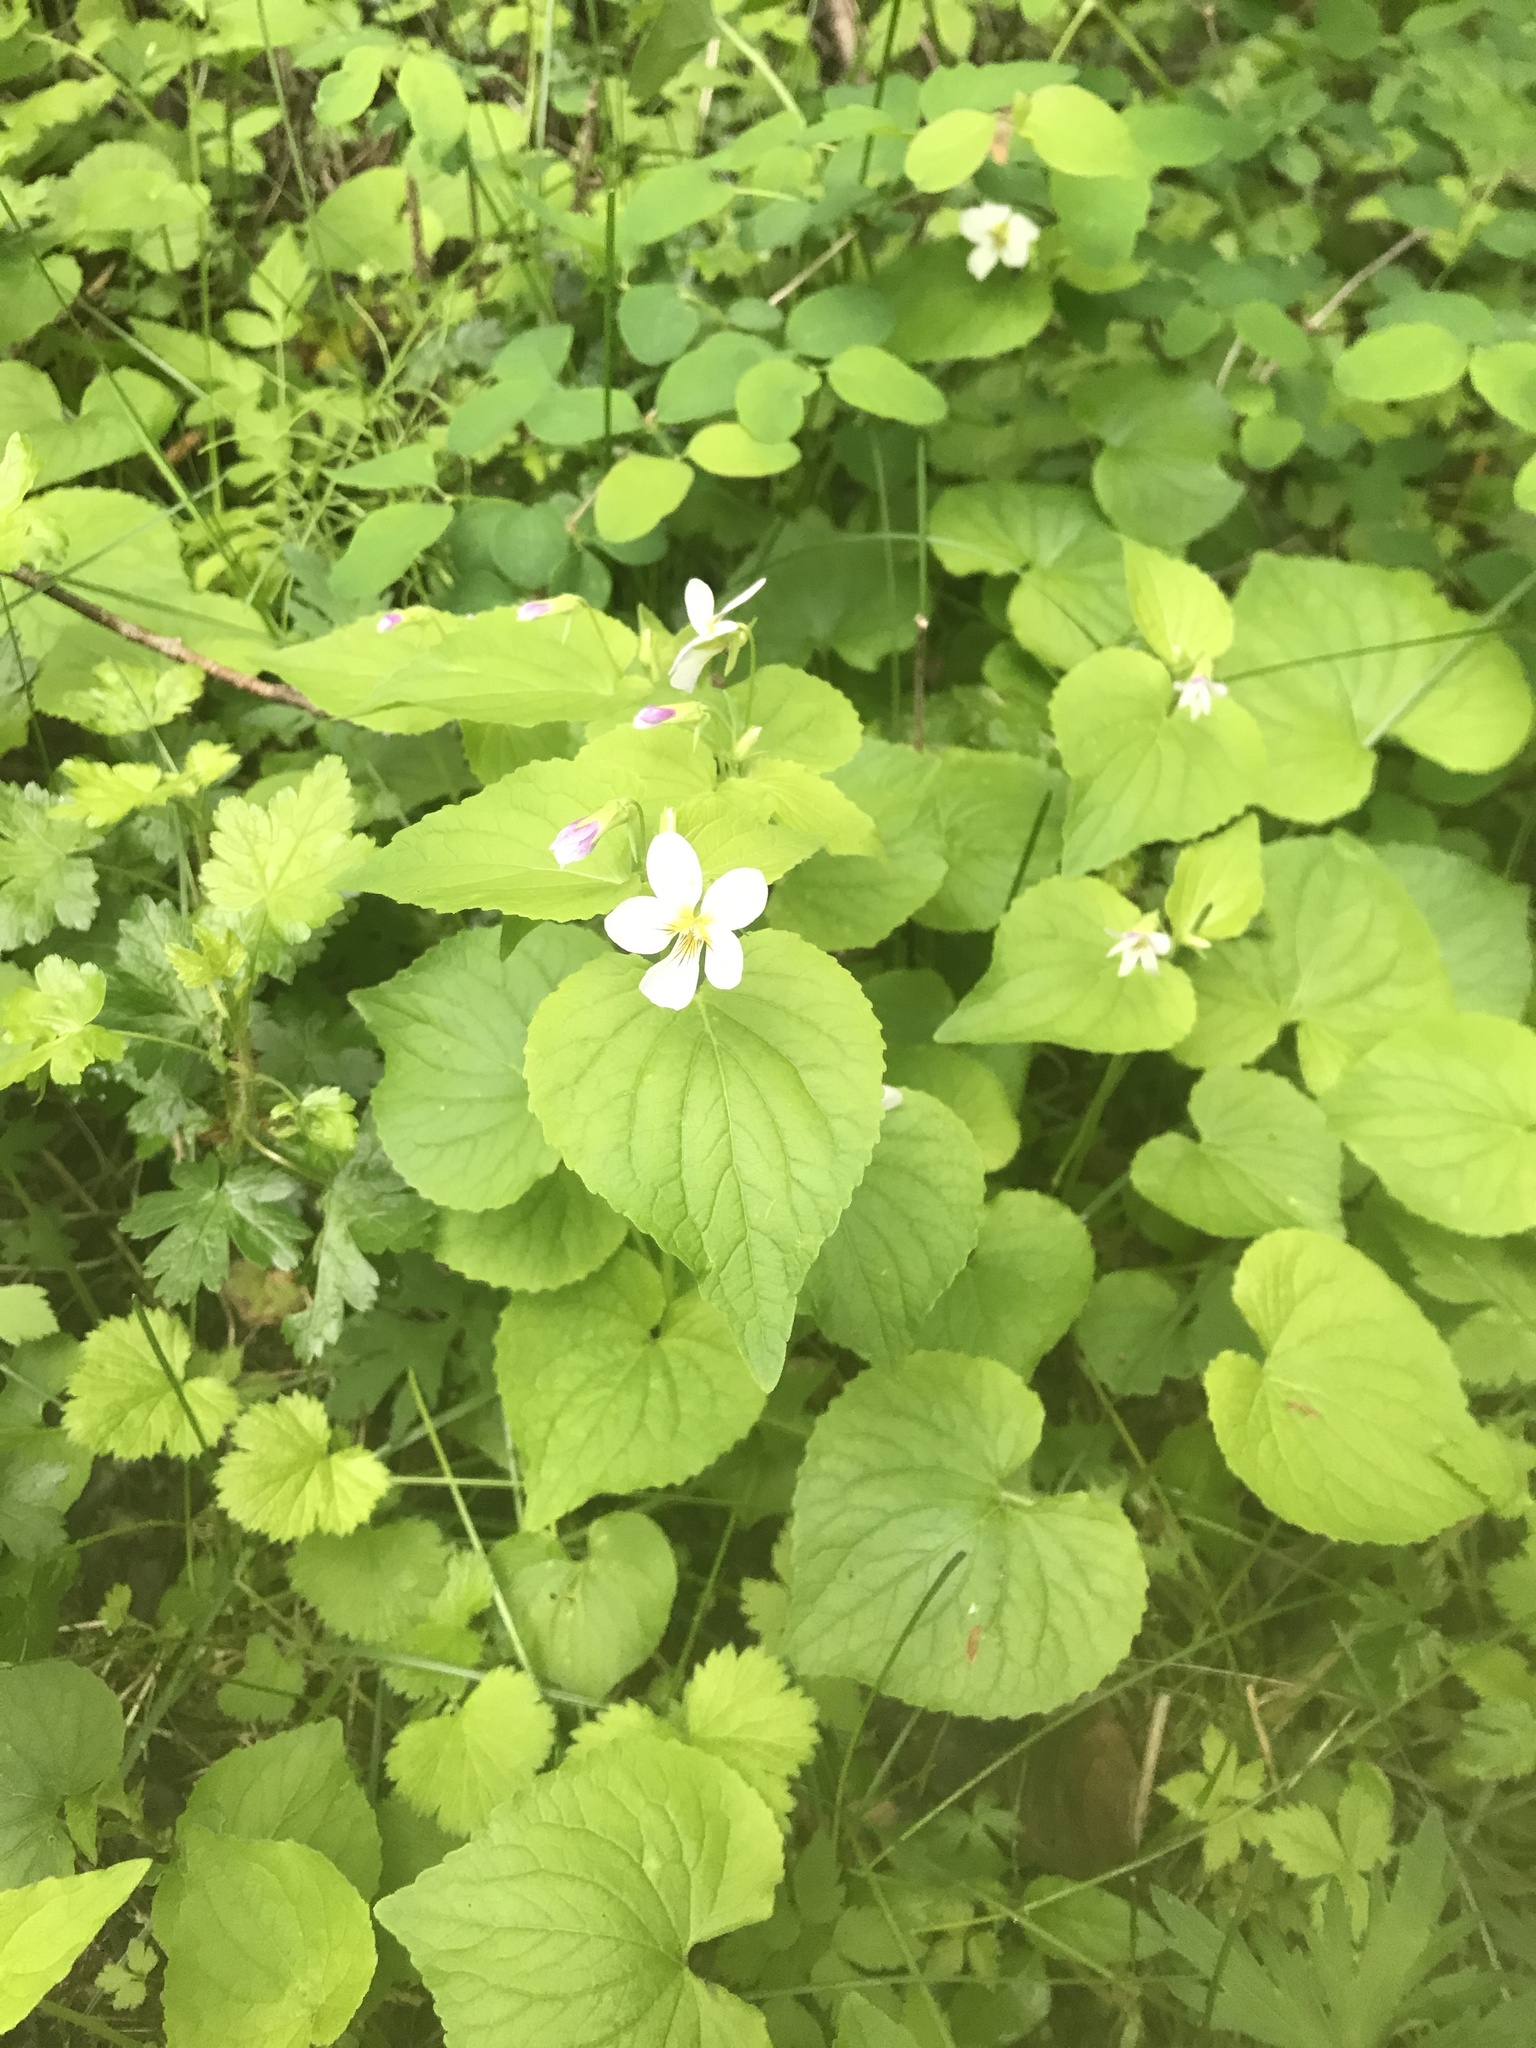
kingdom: Plantae
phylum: Tracheophyta
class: Magnoliopsida
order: Malpighiales
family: Violaceae
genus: Viola
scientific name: Viola canadensis
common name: Canada violet
